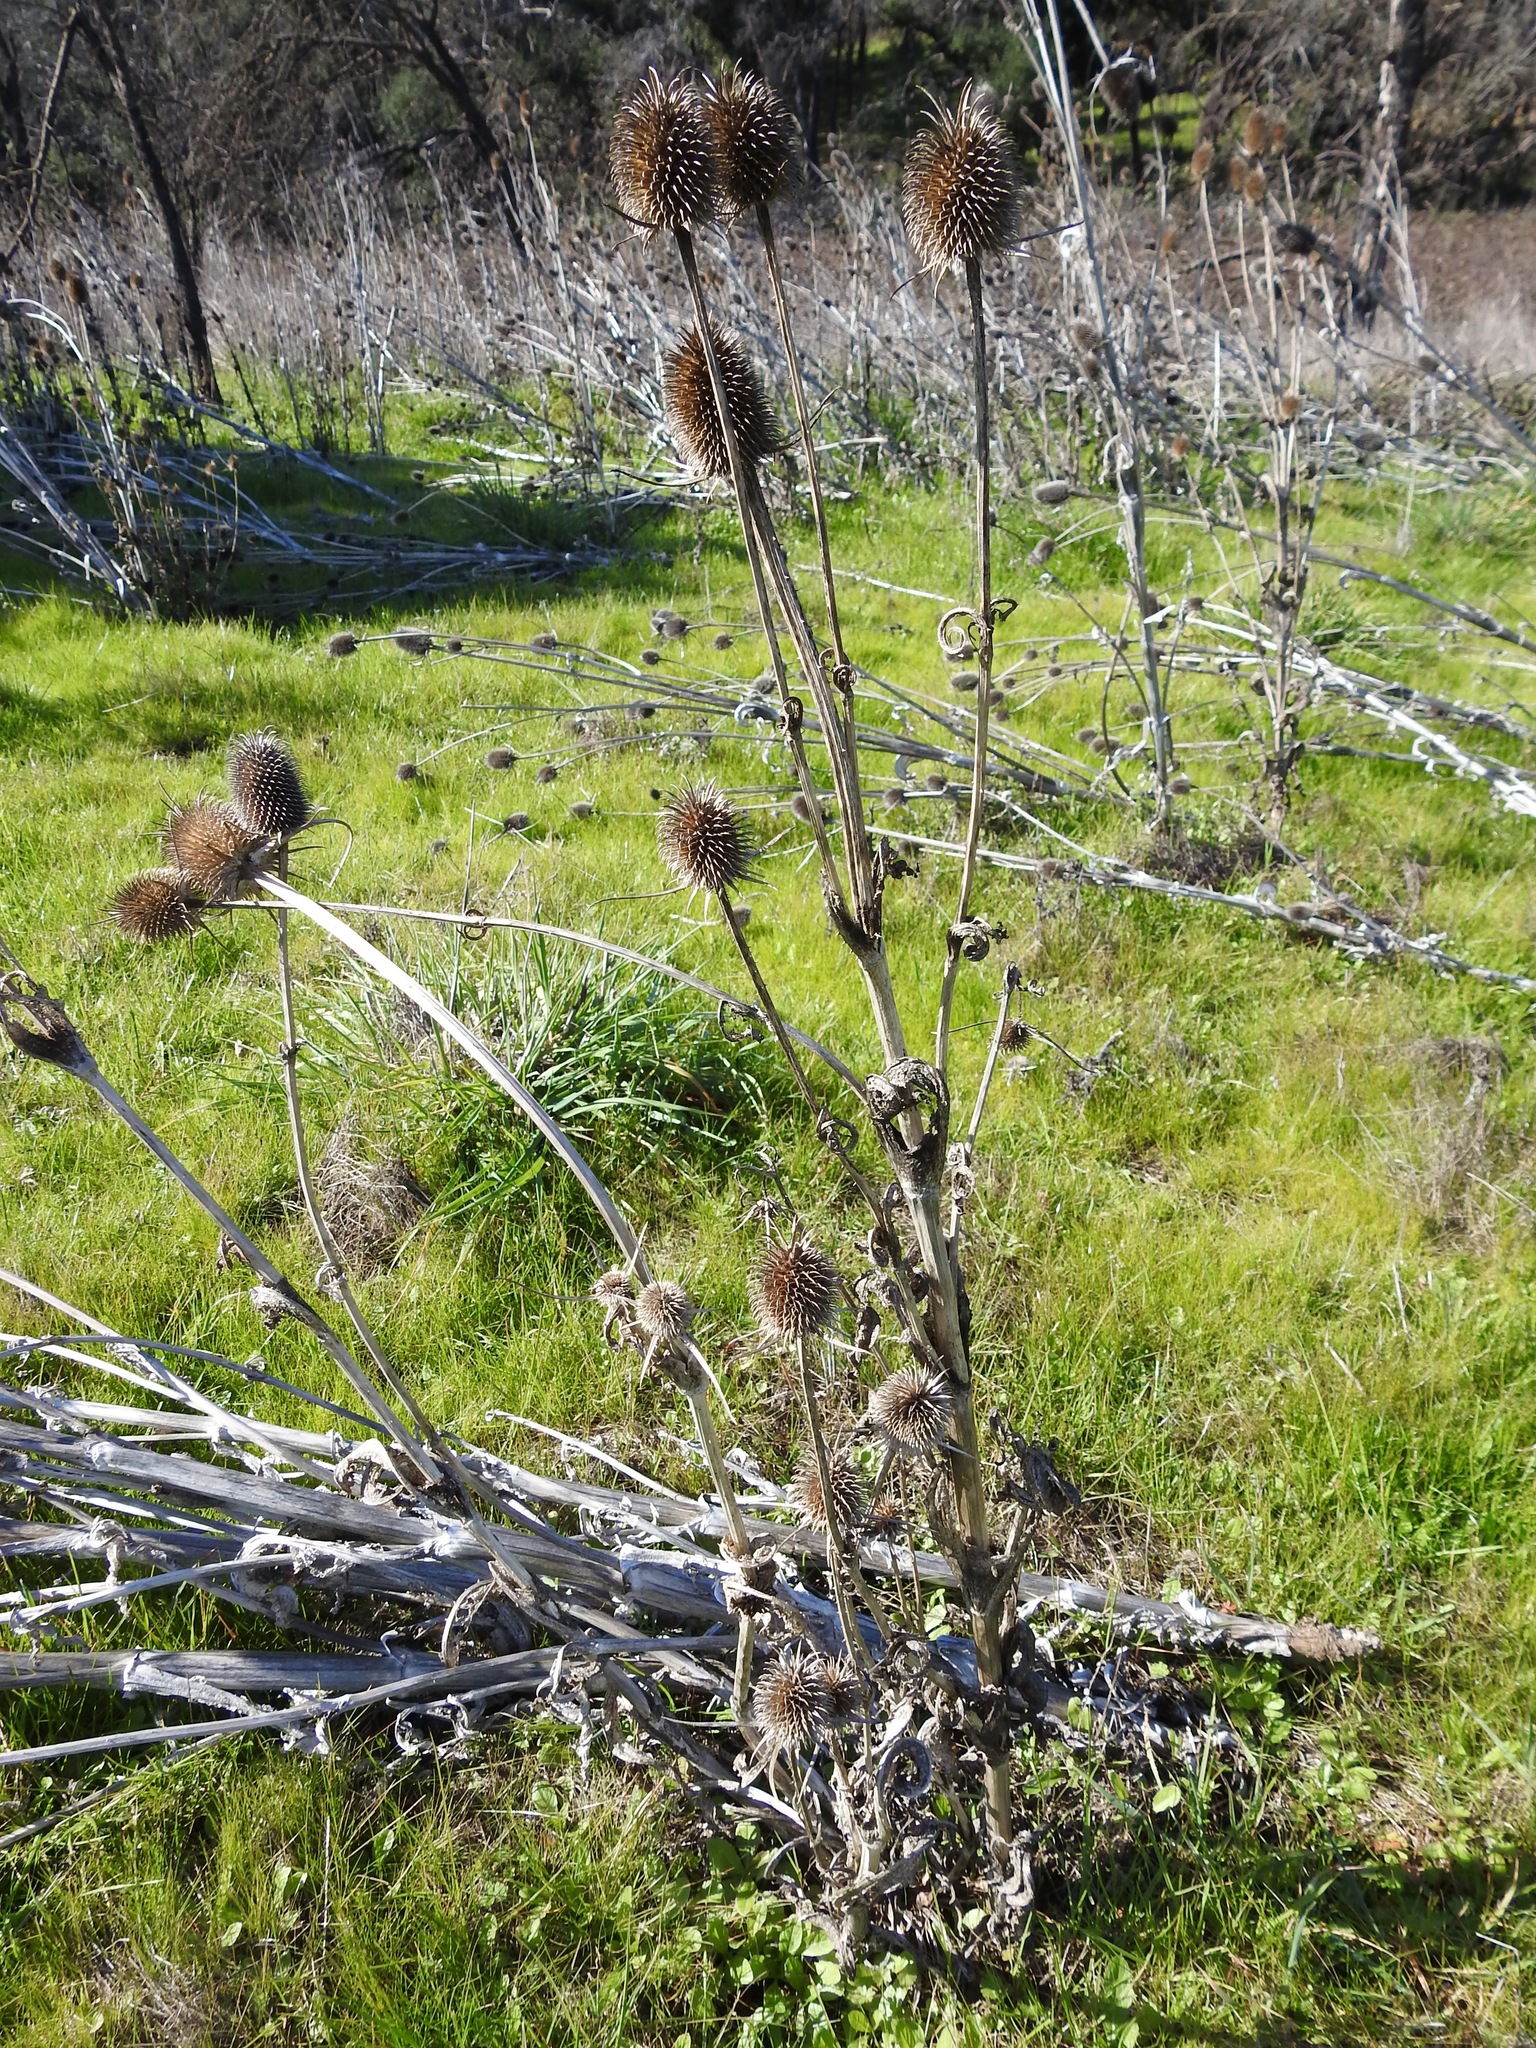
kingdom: Plantae
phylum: Tracheophyta
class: Magnoliopsida
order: Dipsacales
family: Caprifoliaceae
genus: Dipsacus
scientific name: Dipsacus sativus
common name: Fuller's teasel
